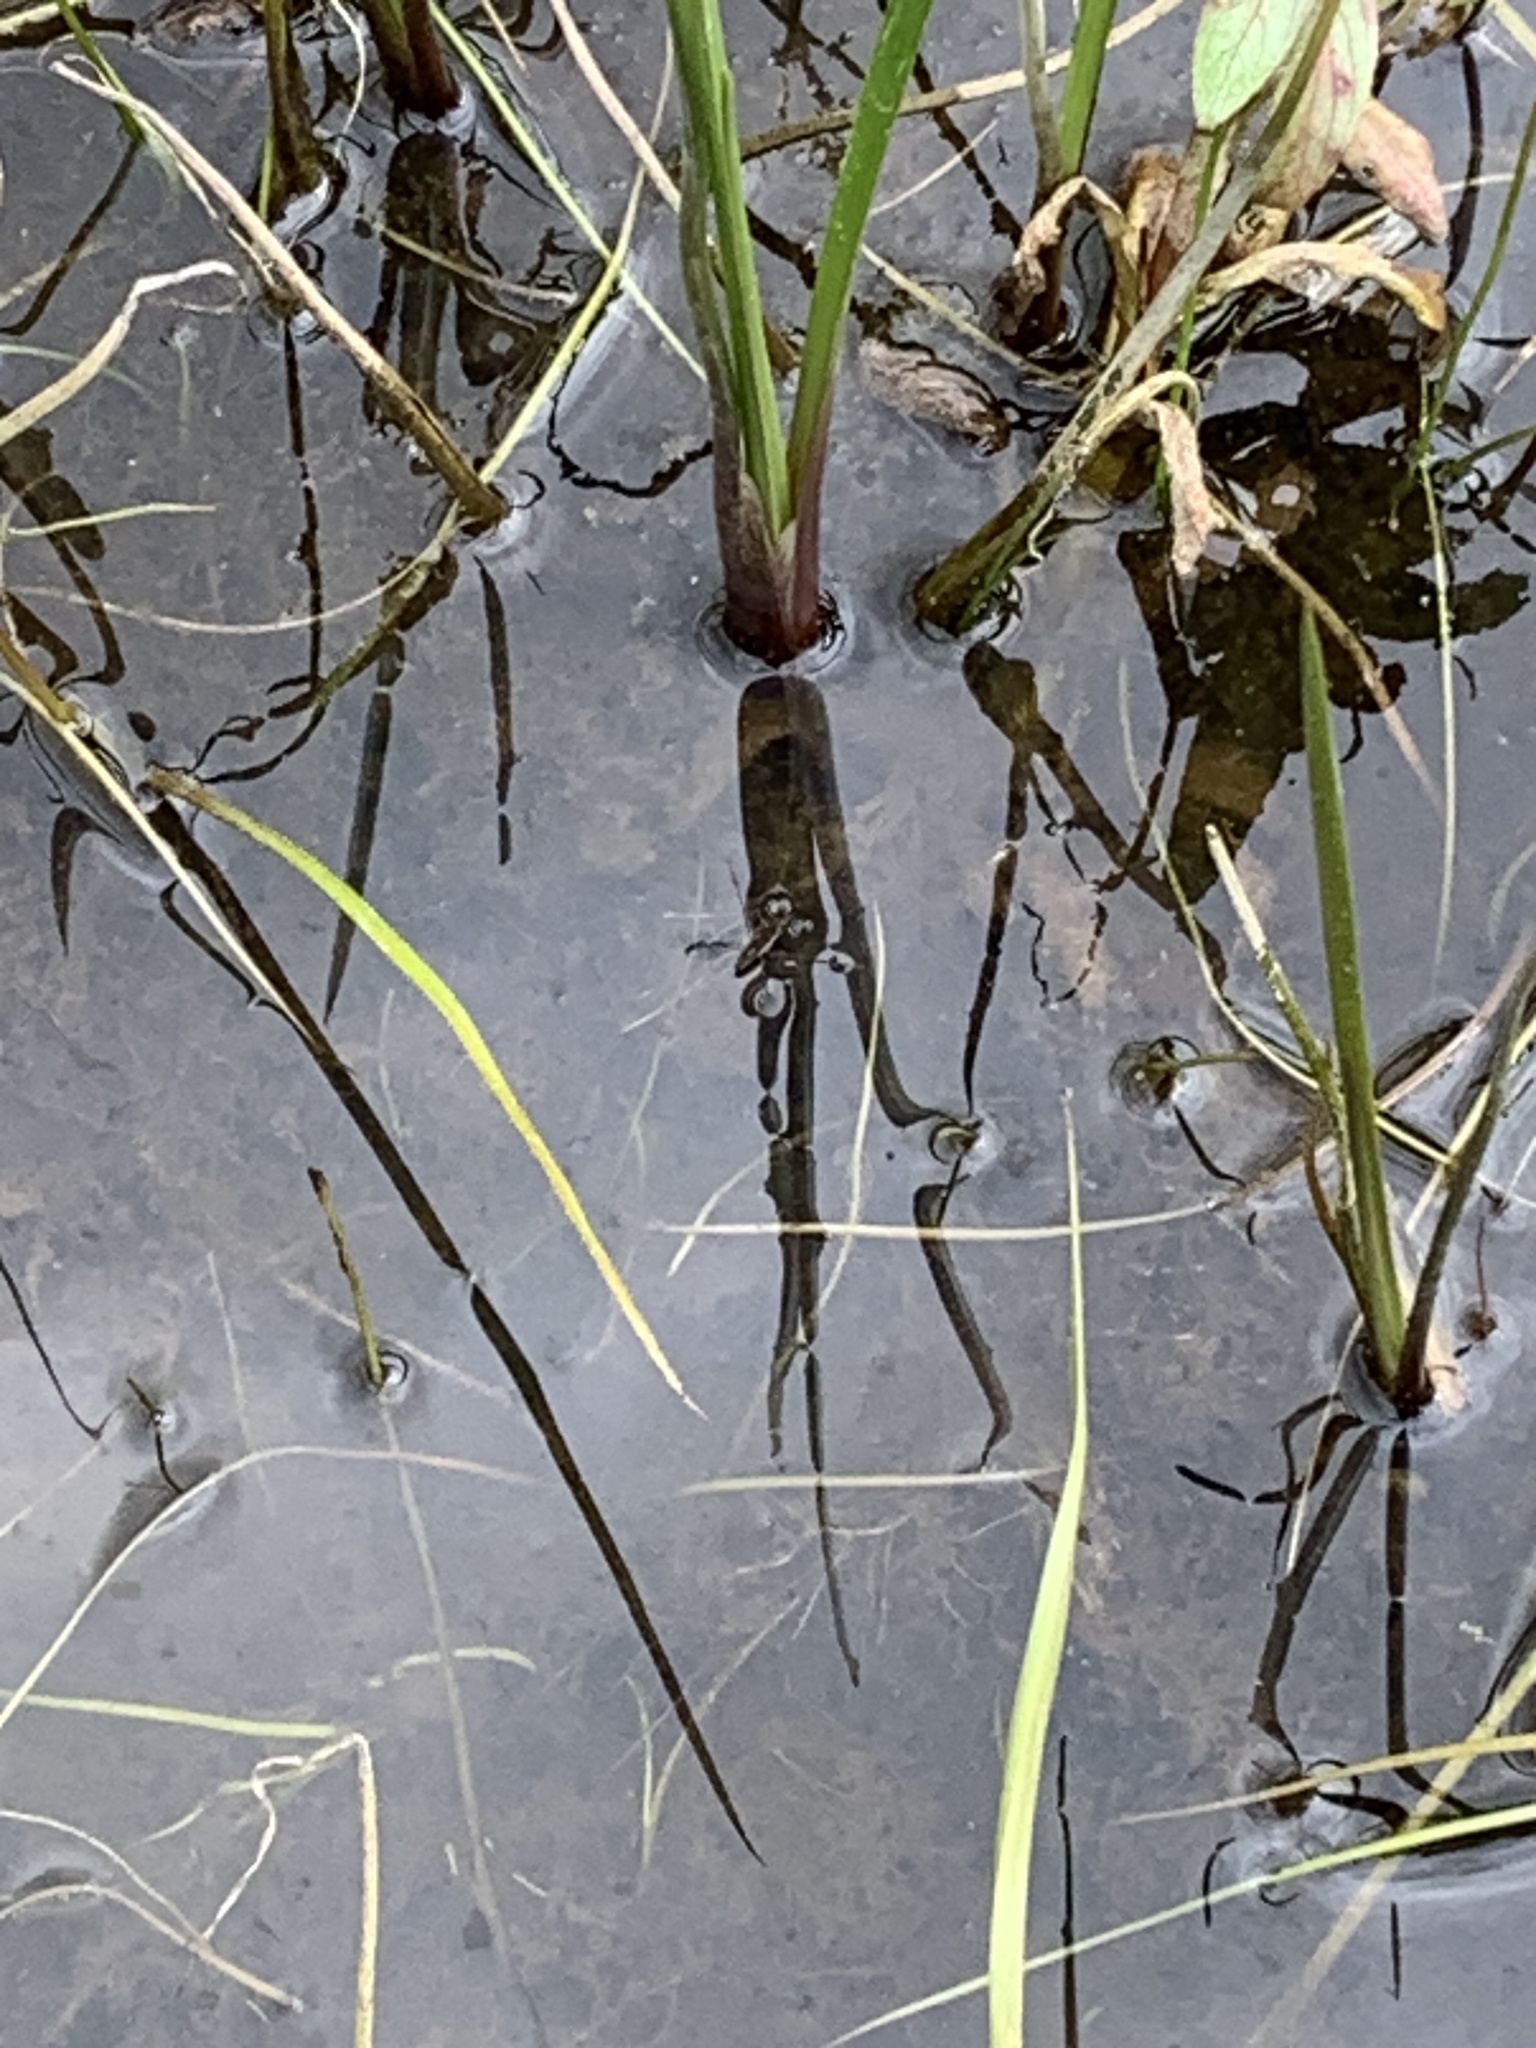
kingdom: Animalia
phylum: Arthropoda
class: Insecta
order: Hemiptera
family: Gerridae
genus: Gerris
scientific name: Gerris
